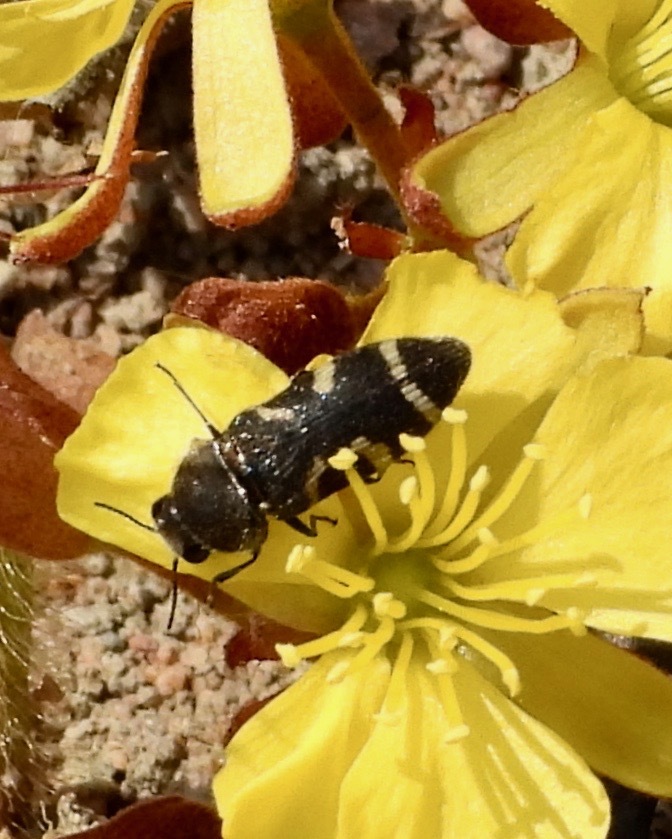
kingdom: Animalia
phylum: Arthropoda
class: Insecta
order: Coleoptera
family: Buprestidae
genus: Acmaeodera
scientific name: Acmaeodera virgo
